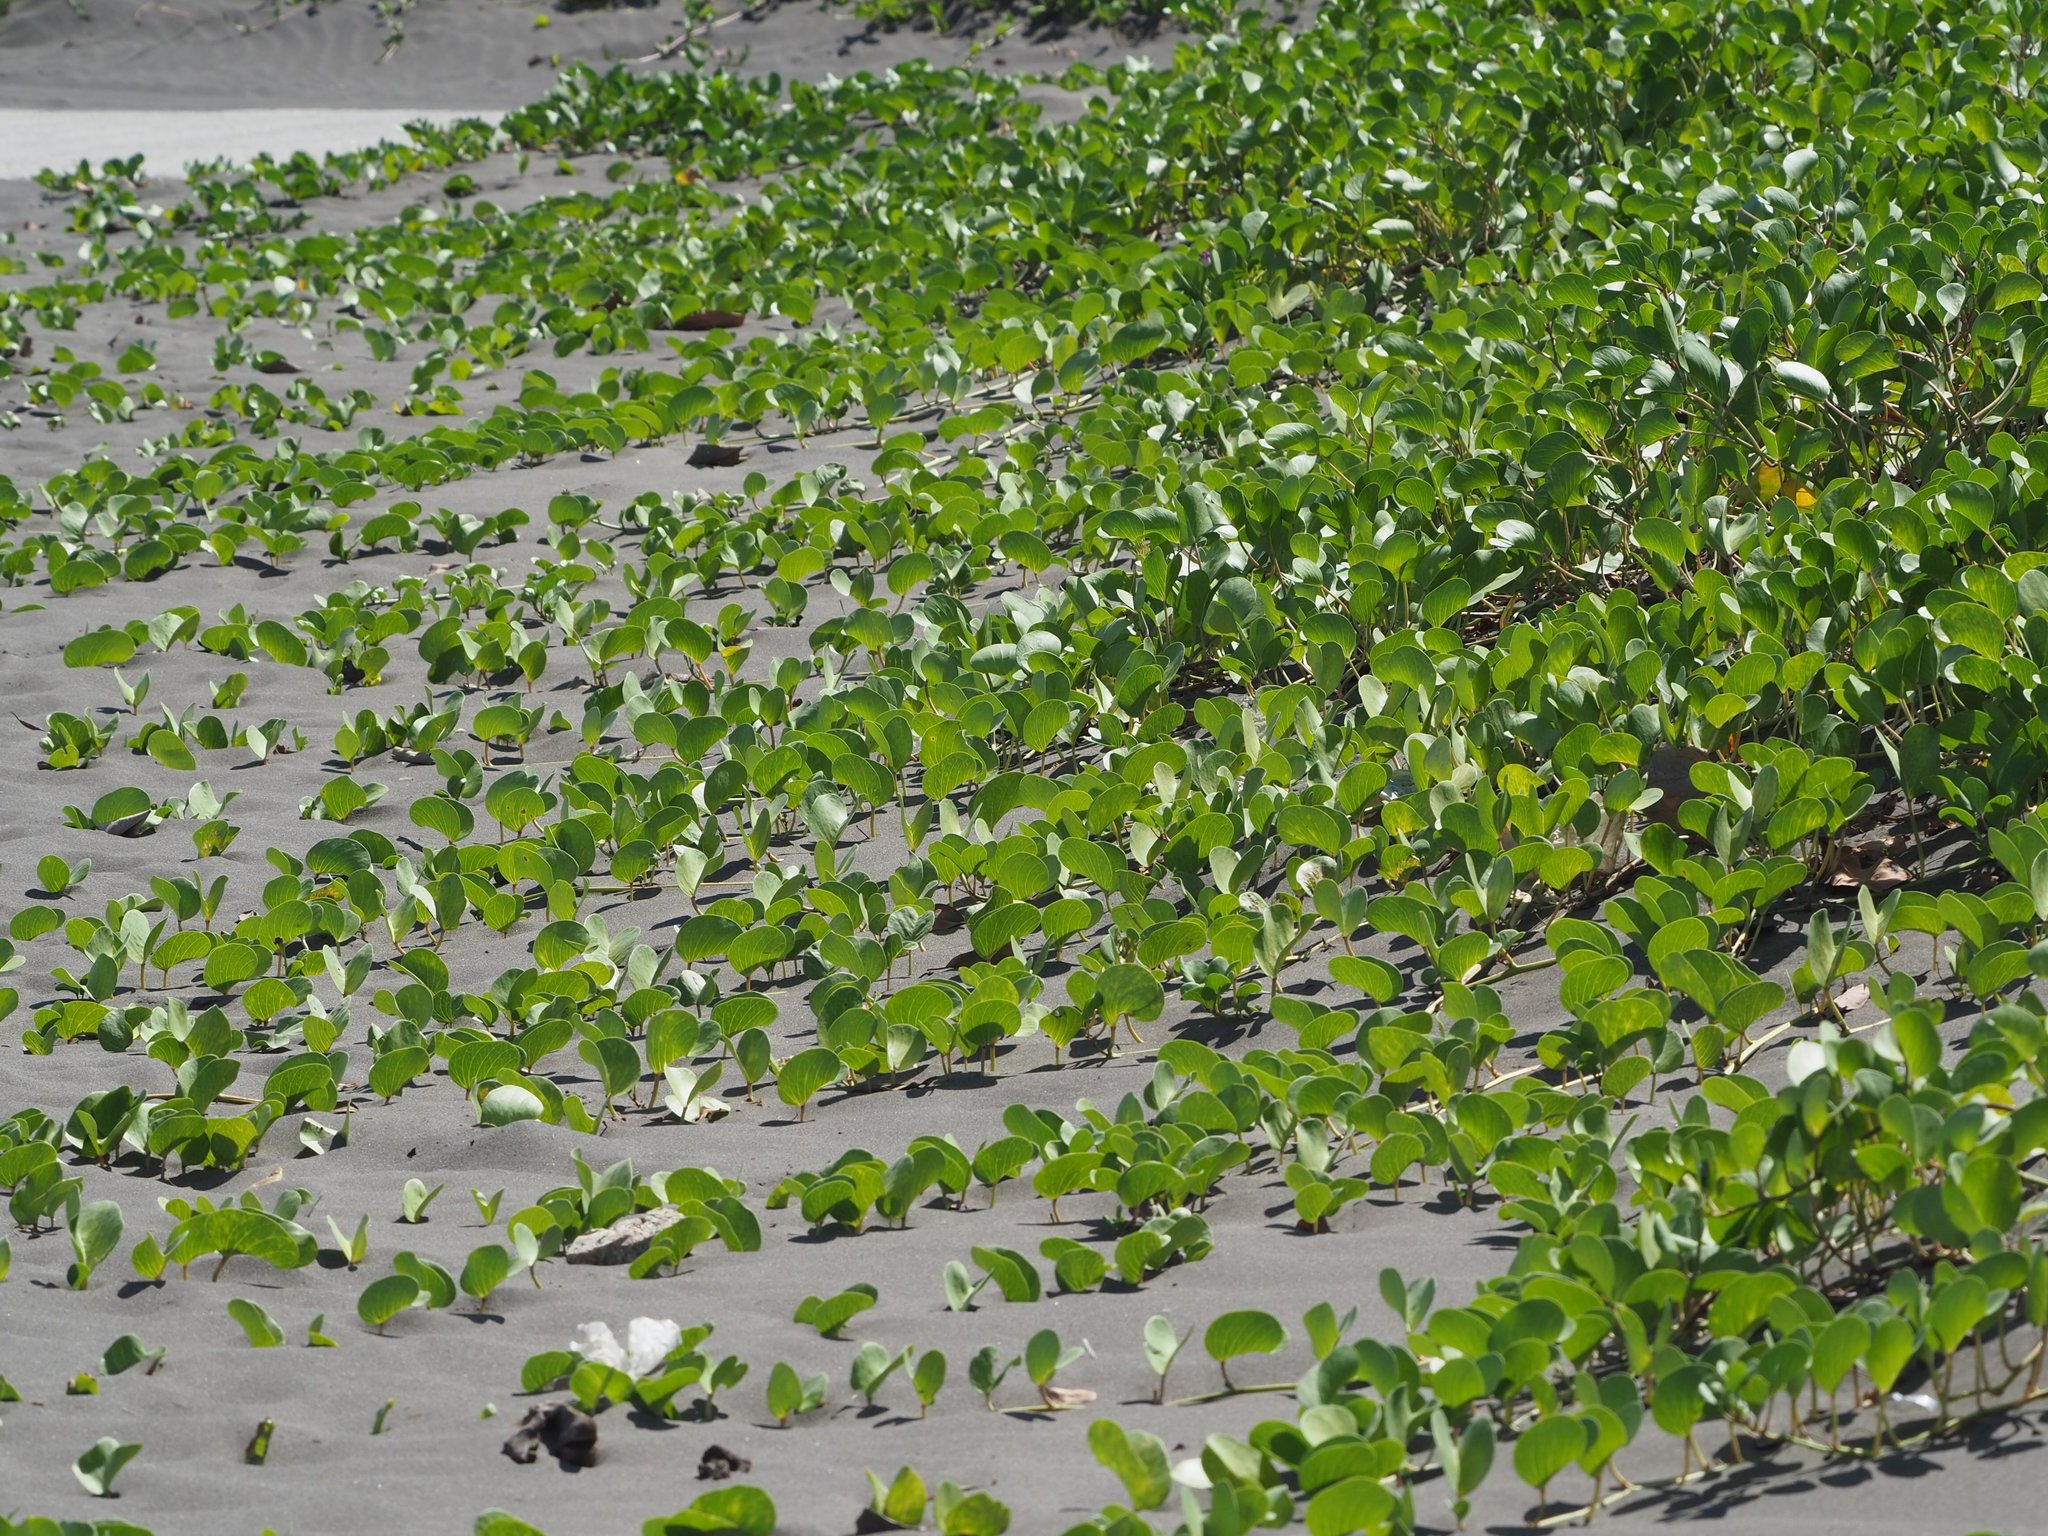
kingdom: Plantae
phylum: Tracheophyta
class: Magnoliopsida
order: Solanales
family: Convolvulaceae
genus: Ipomoea
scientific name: Ipomoea pes-caprae
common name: Beach morning glory
